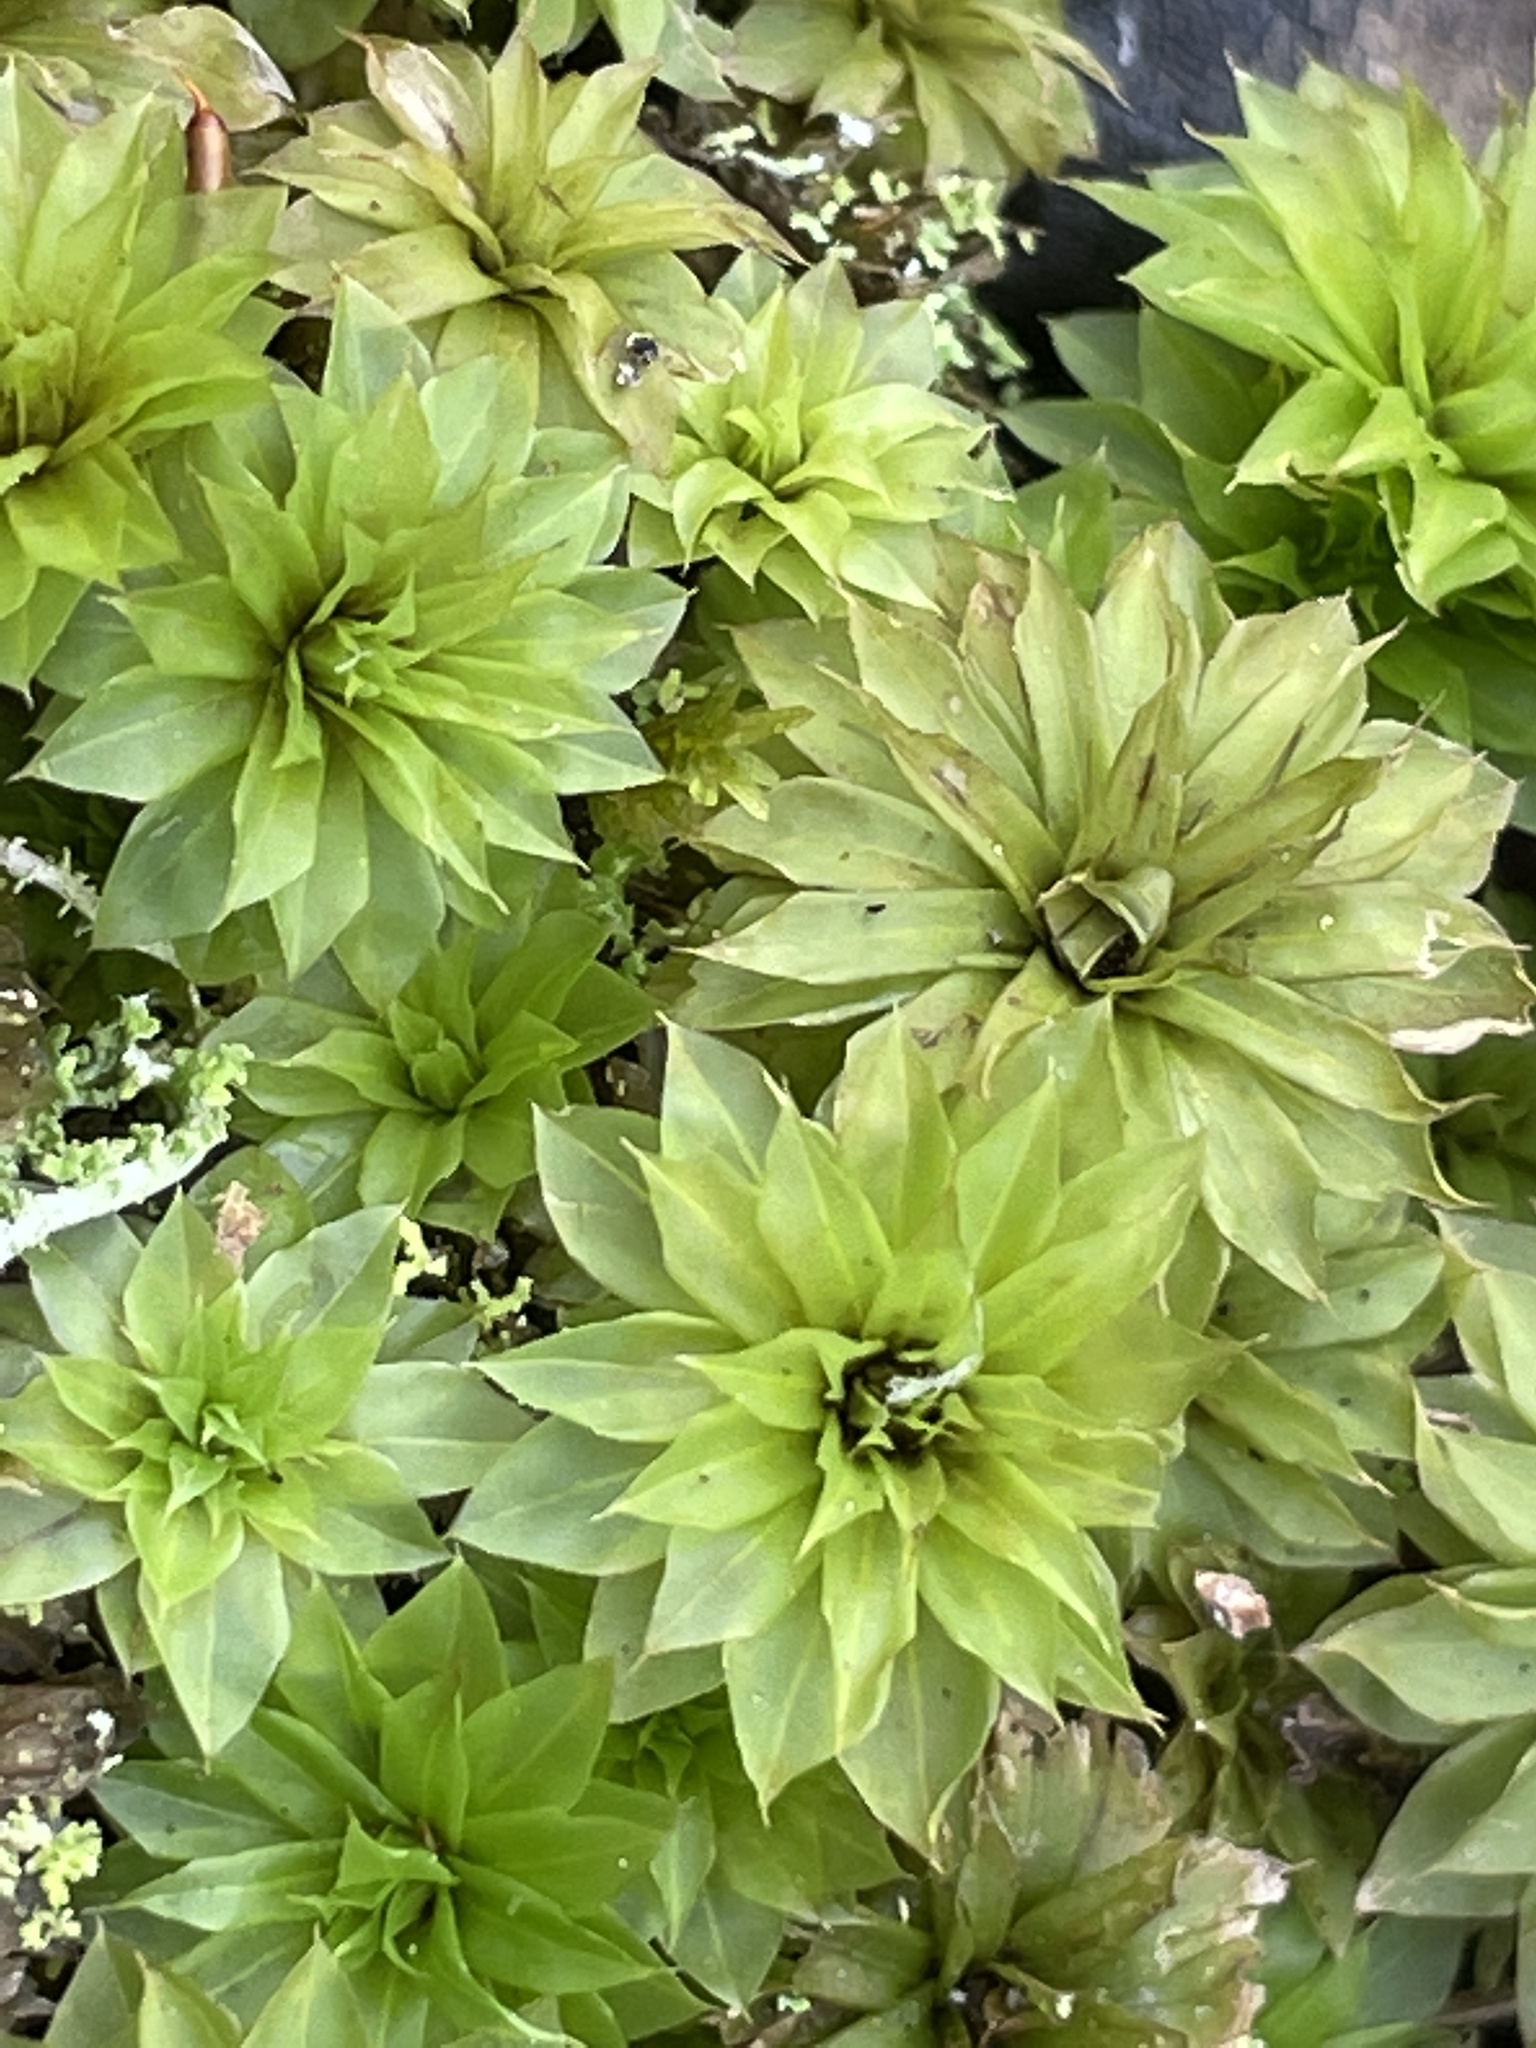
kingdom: Plantae
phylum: Bryophyta
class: Bryopsida
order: Bryales
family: Bryaceae
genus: Rhodobryum
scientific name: Rhodobryum ontariense
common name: Ontario rhodobryum moss
